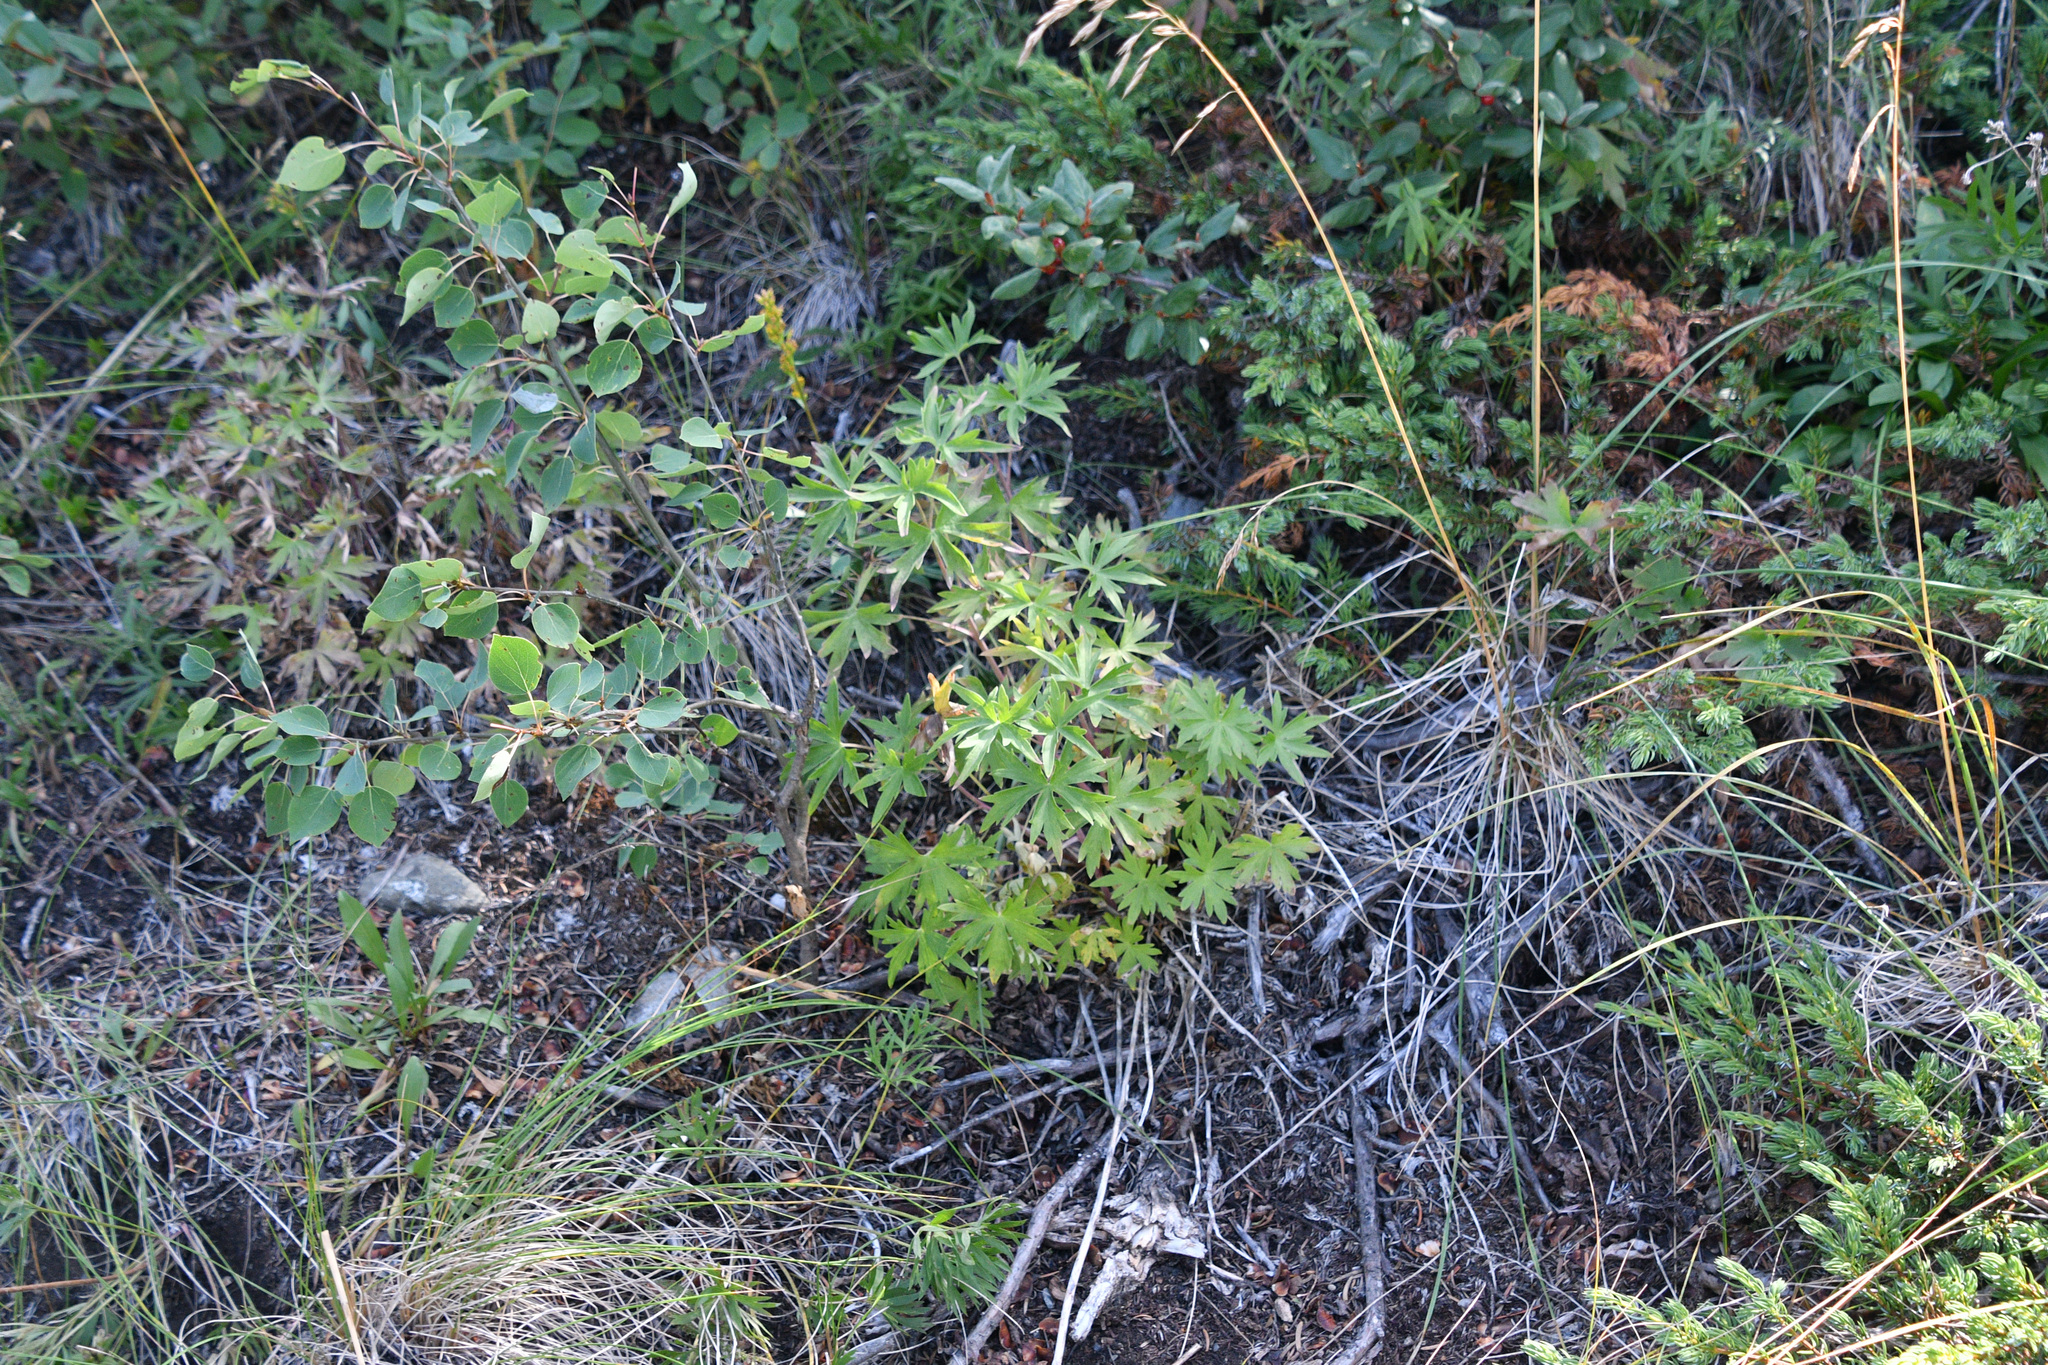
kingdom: Plantae
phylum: Tracheophyta
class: Magnoliopsida
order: Ranunculales
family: Ranunculaceae
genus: Delphinium
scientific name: Delphinium glaucum
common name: Brown's larkspur
